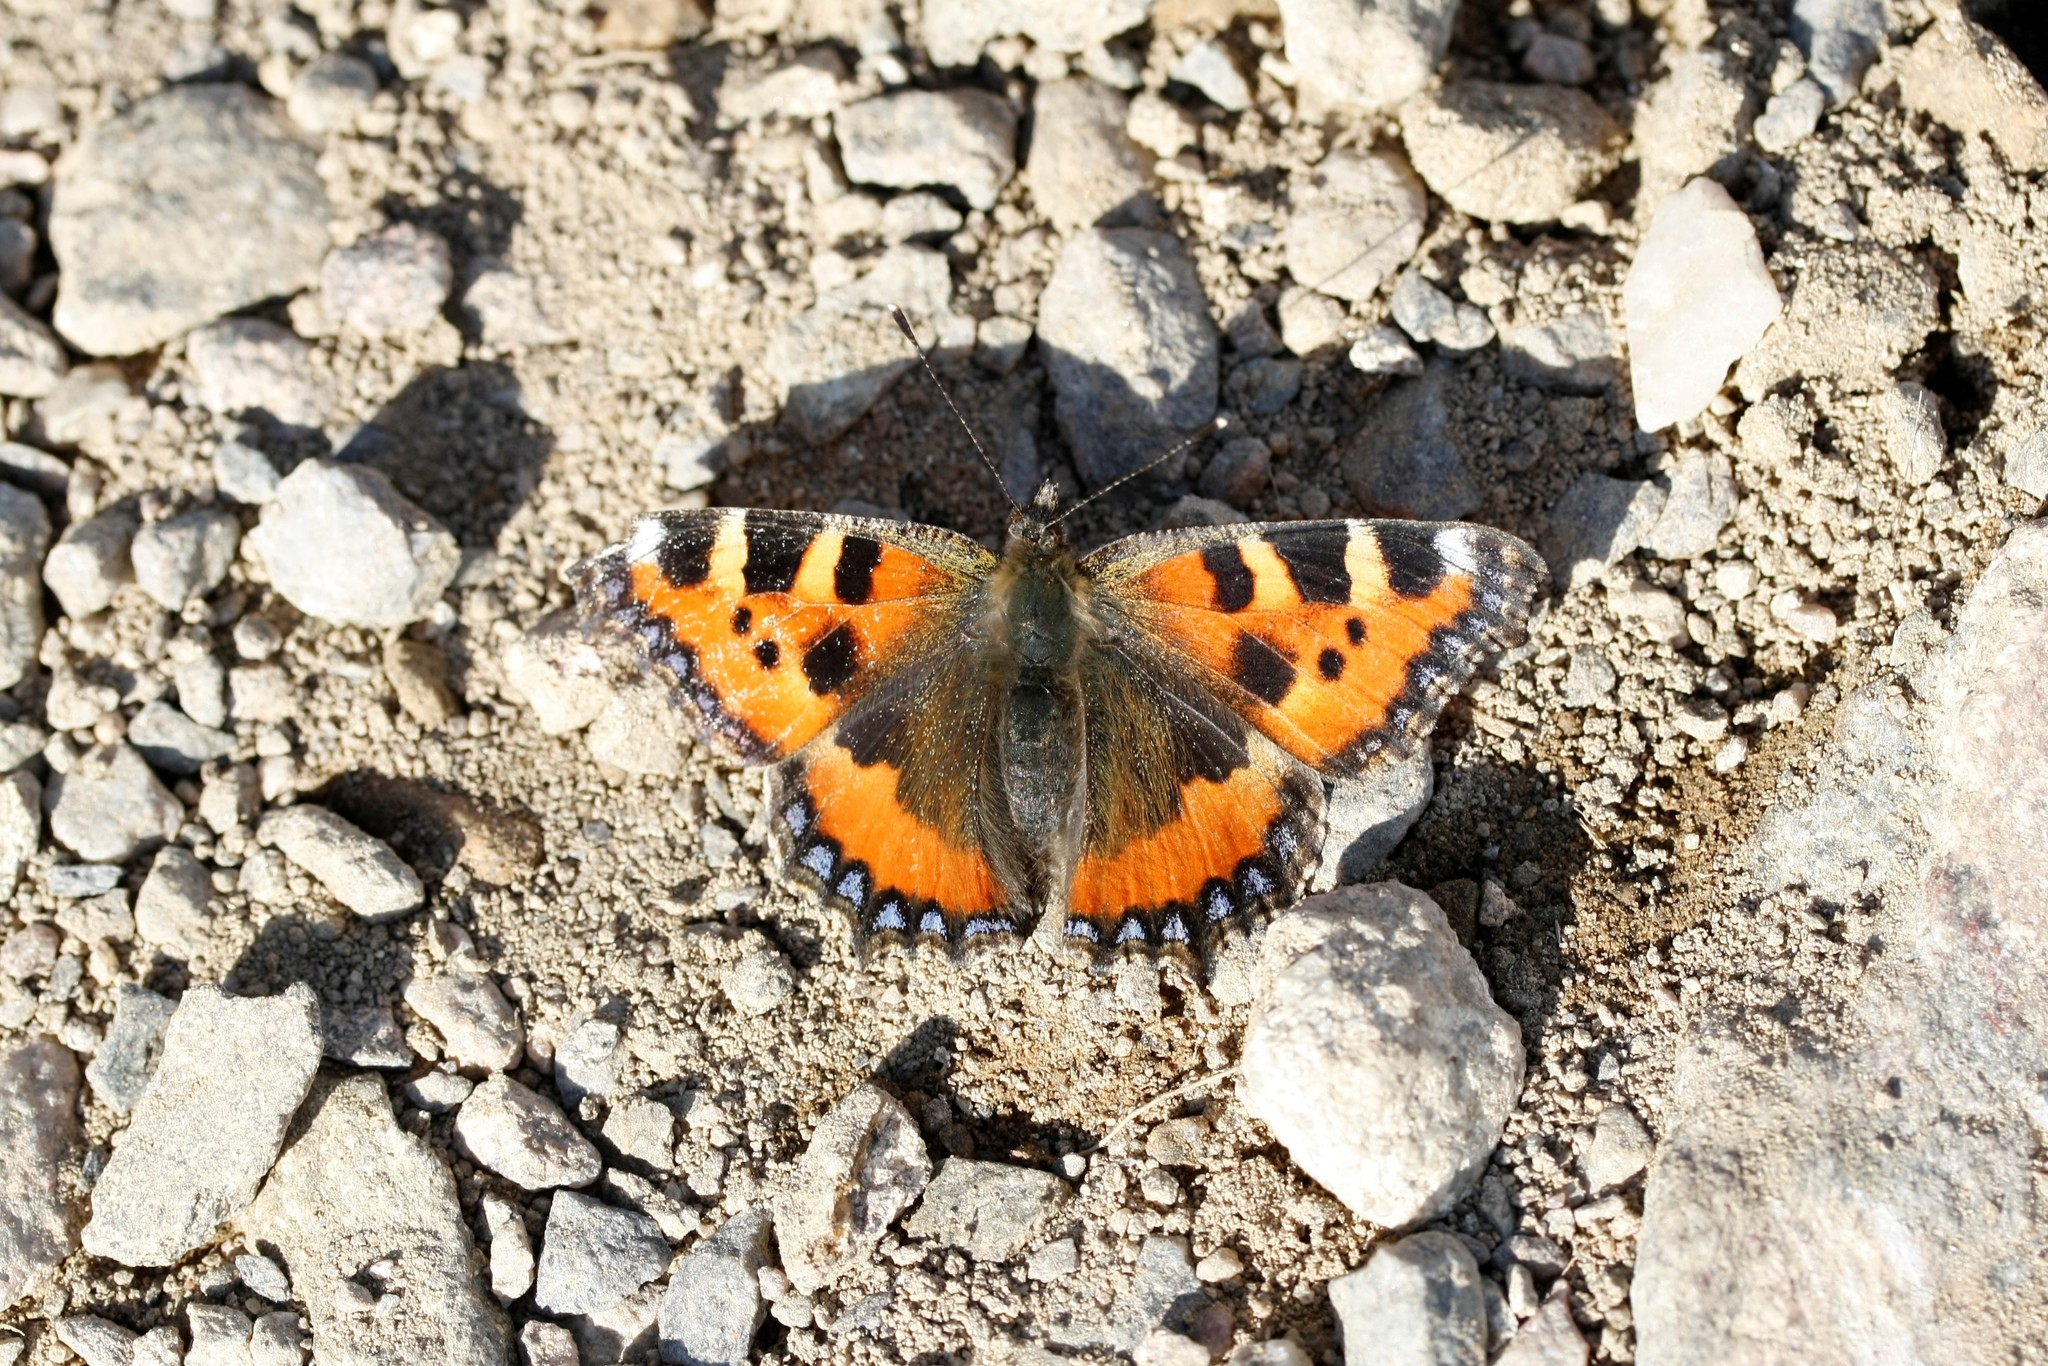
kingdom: Animalia
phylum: Arthropoda
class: Insecta
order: Lepidoptera
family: Nymphalidae
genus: Aglais
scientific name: Aglais urticae
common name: Small tortoiseshell
